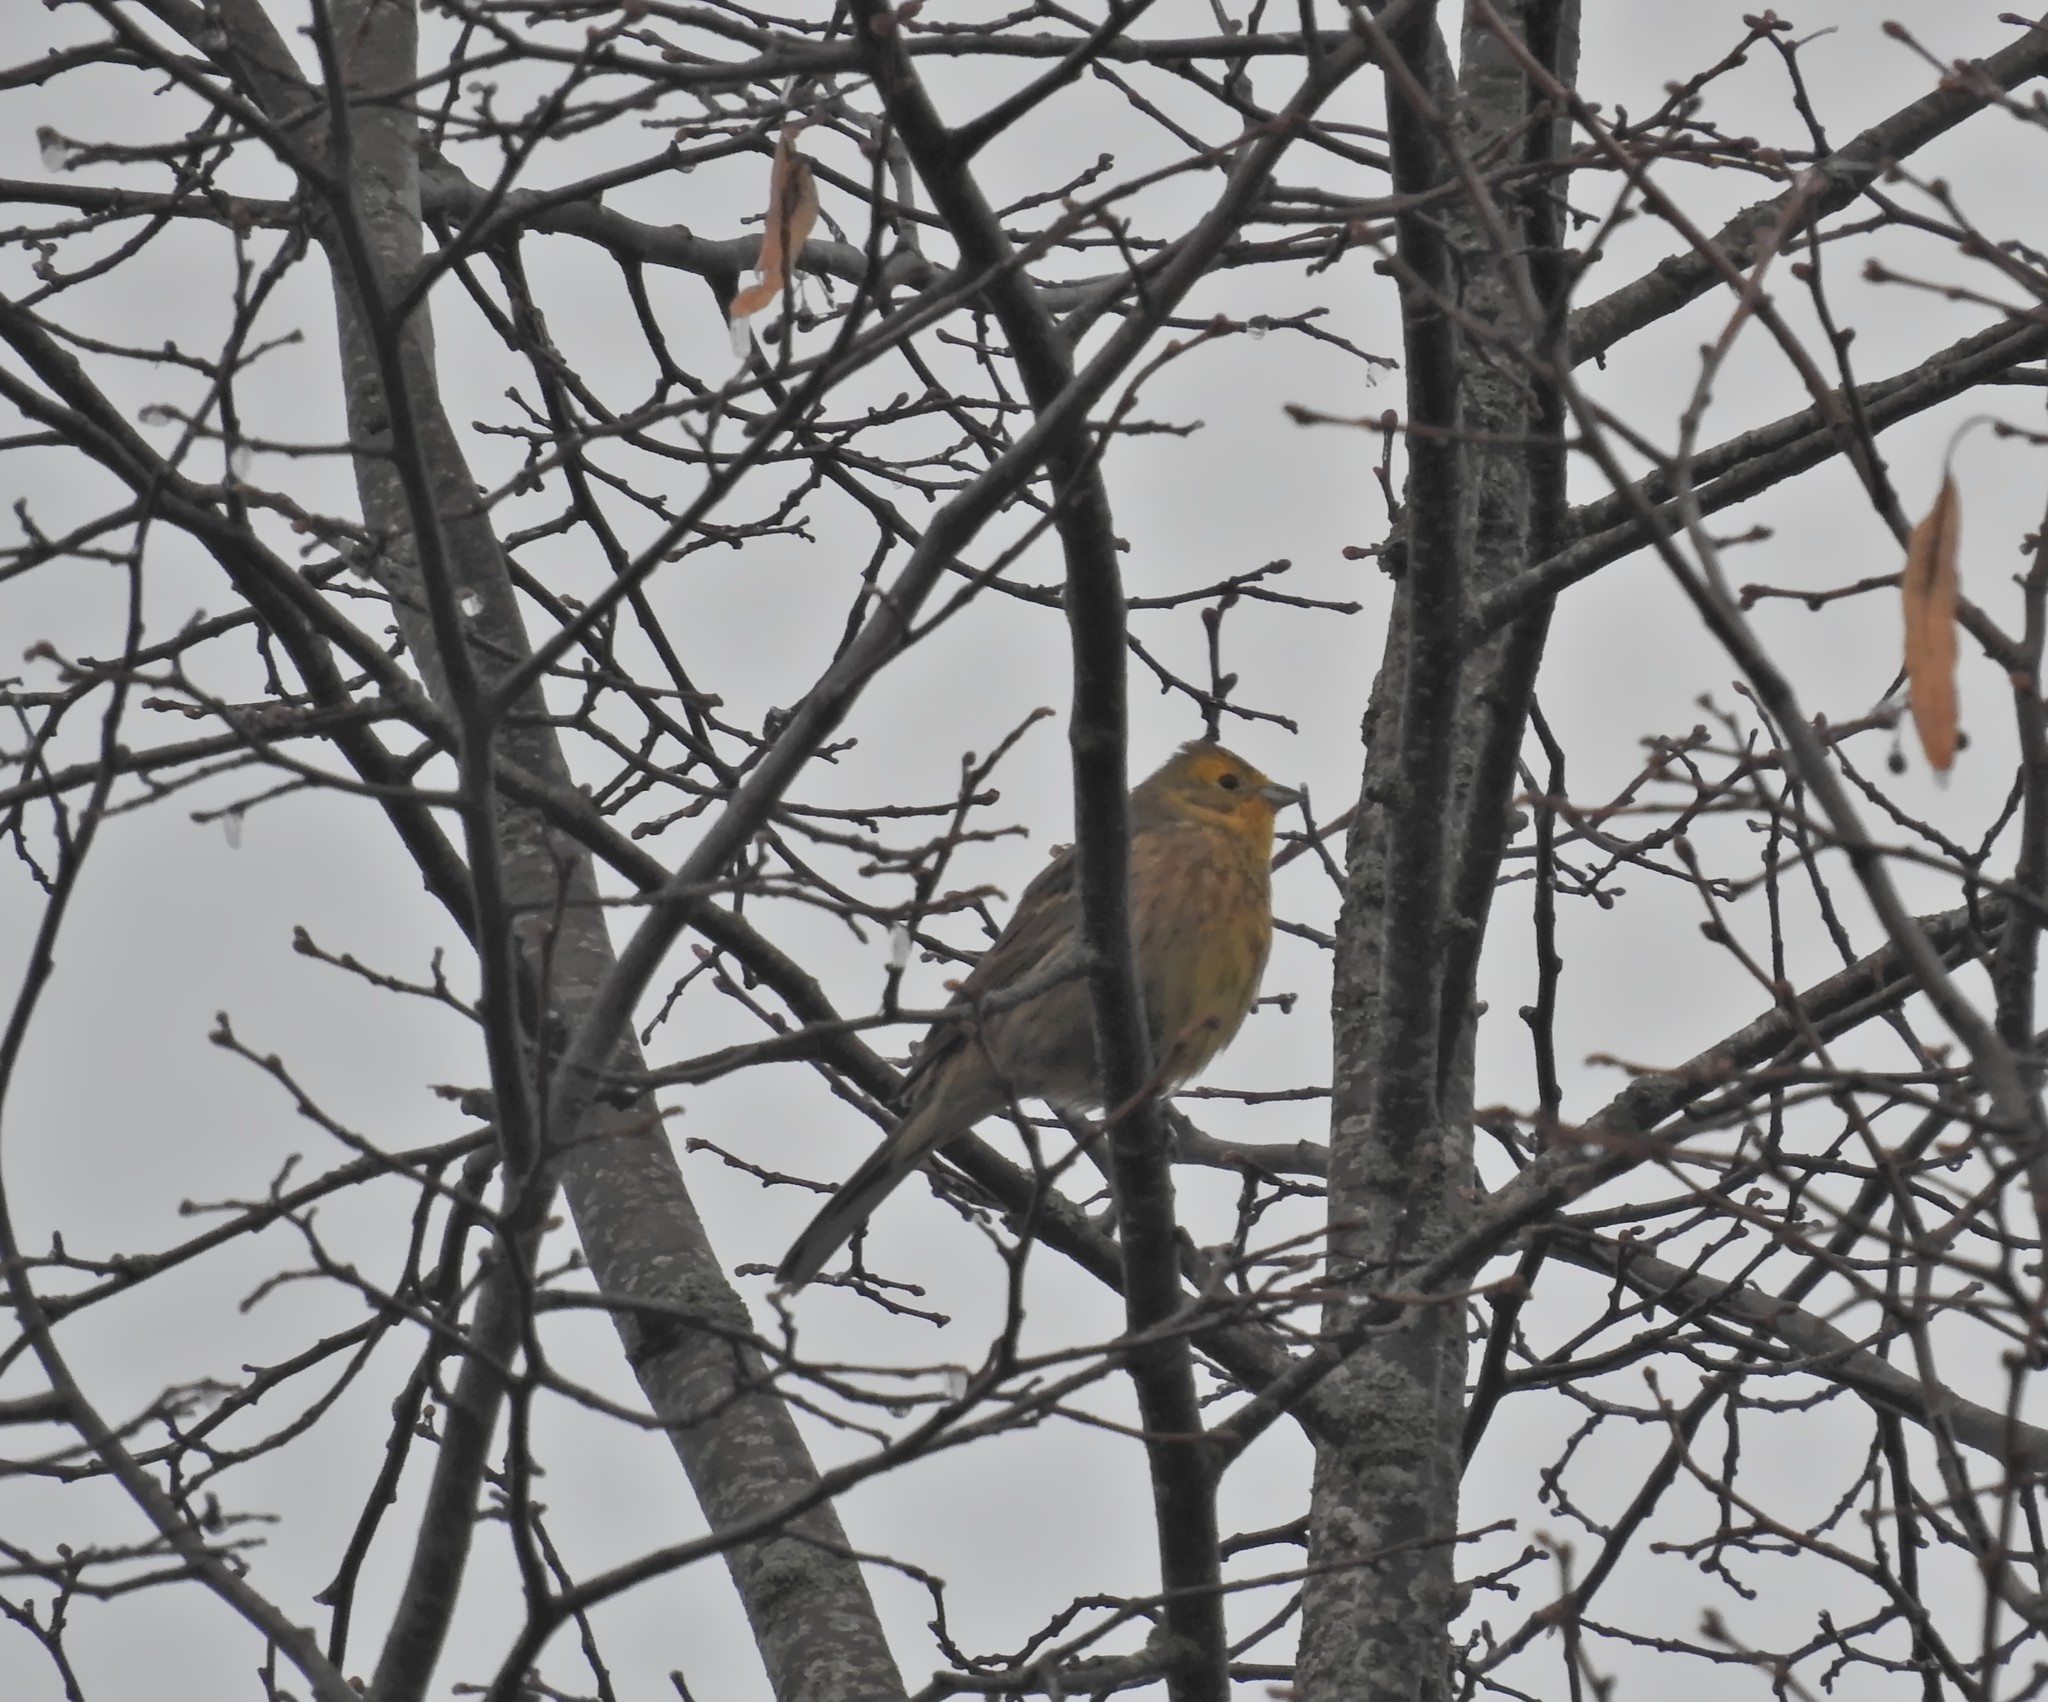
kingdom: Animalia
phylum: Chordata
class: Aves
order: Passeriformes
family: Emberizidae
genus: Emberiza
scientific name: Emberiza citrinella
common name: Yellowhammer
